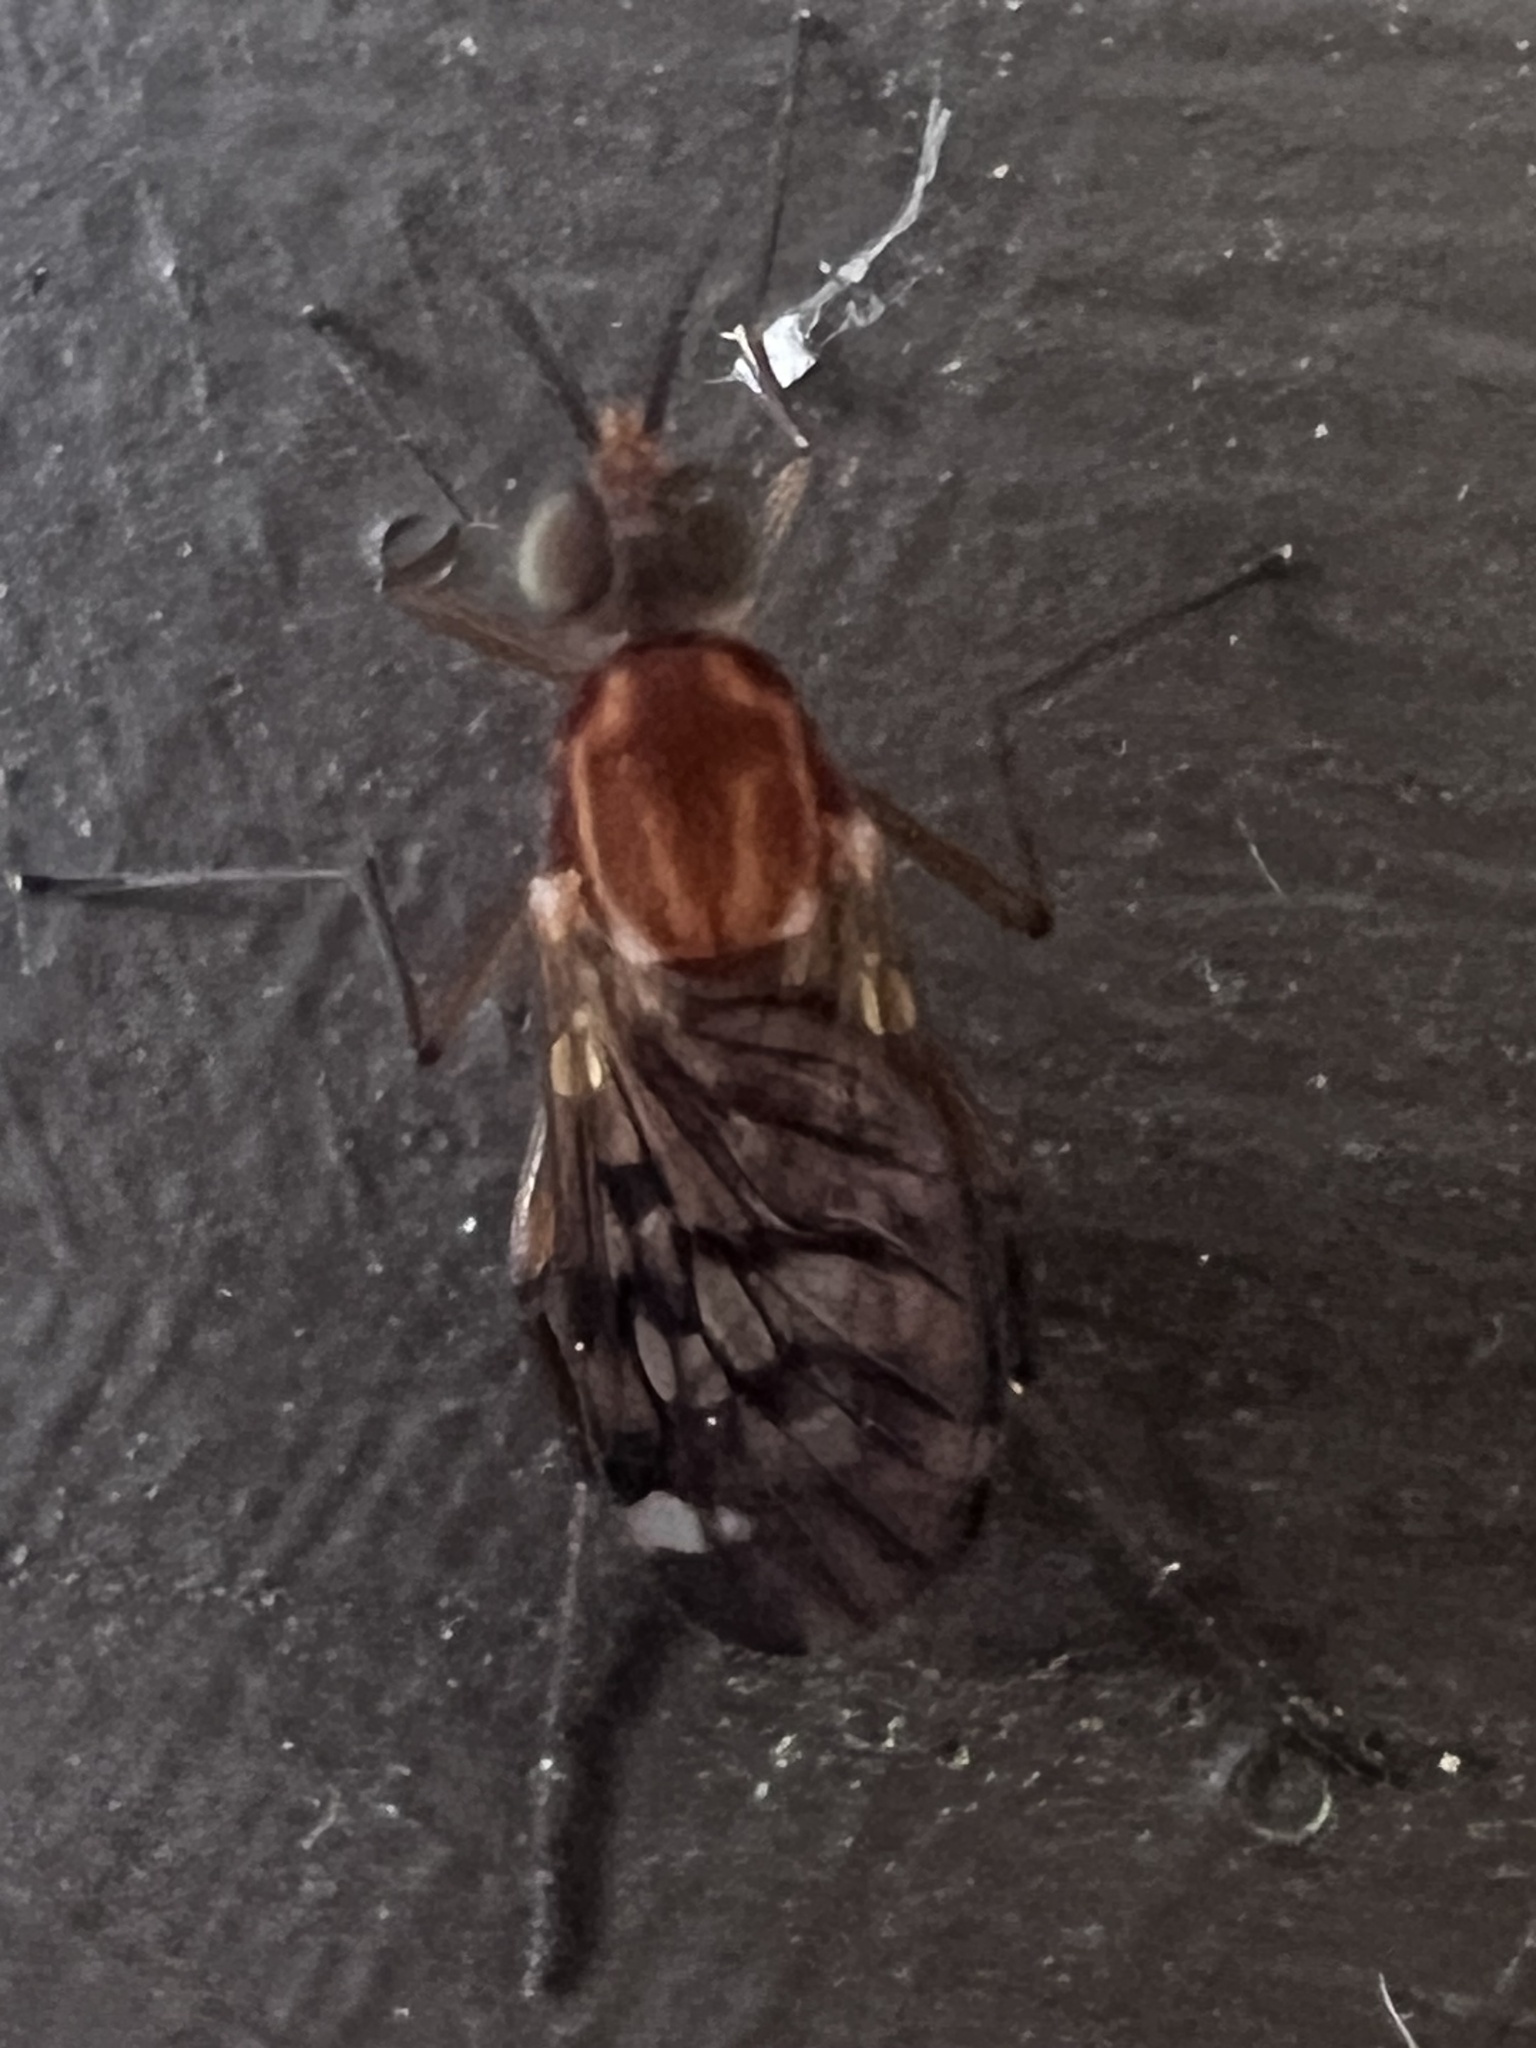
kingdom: Animalia
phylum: Arthropoda
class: Insecta
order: Diptera
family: Anisopodidae
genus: Sylvicola
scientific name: Sylvicola notatus
